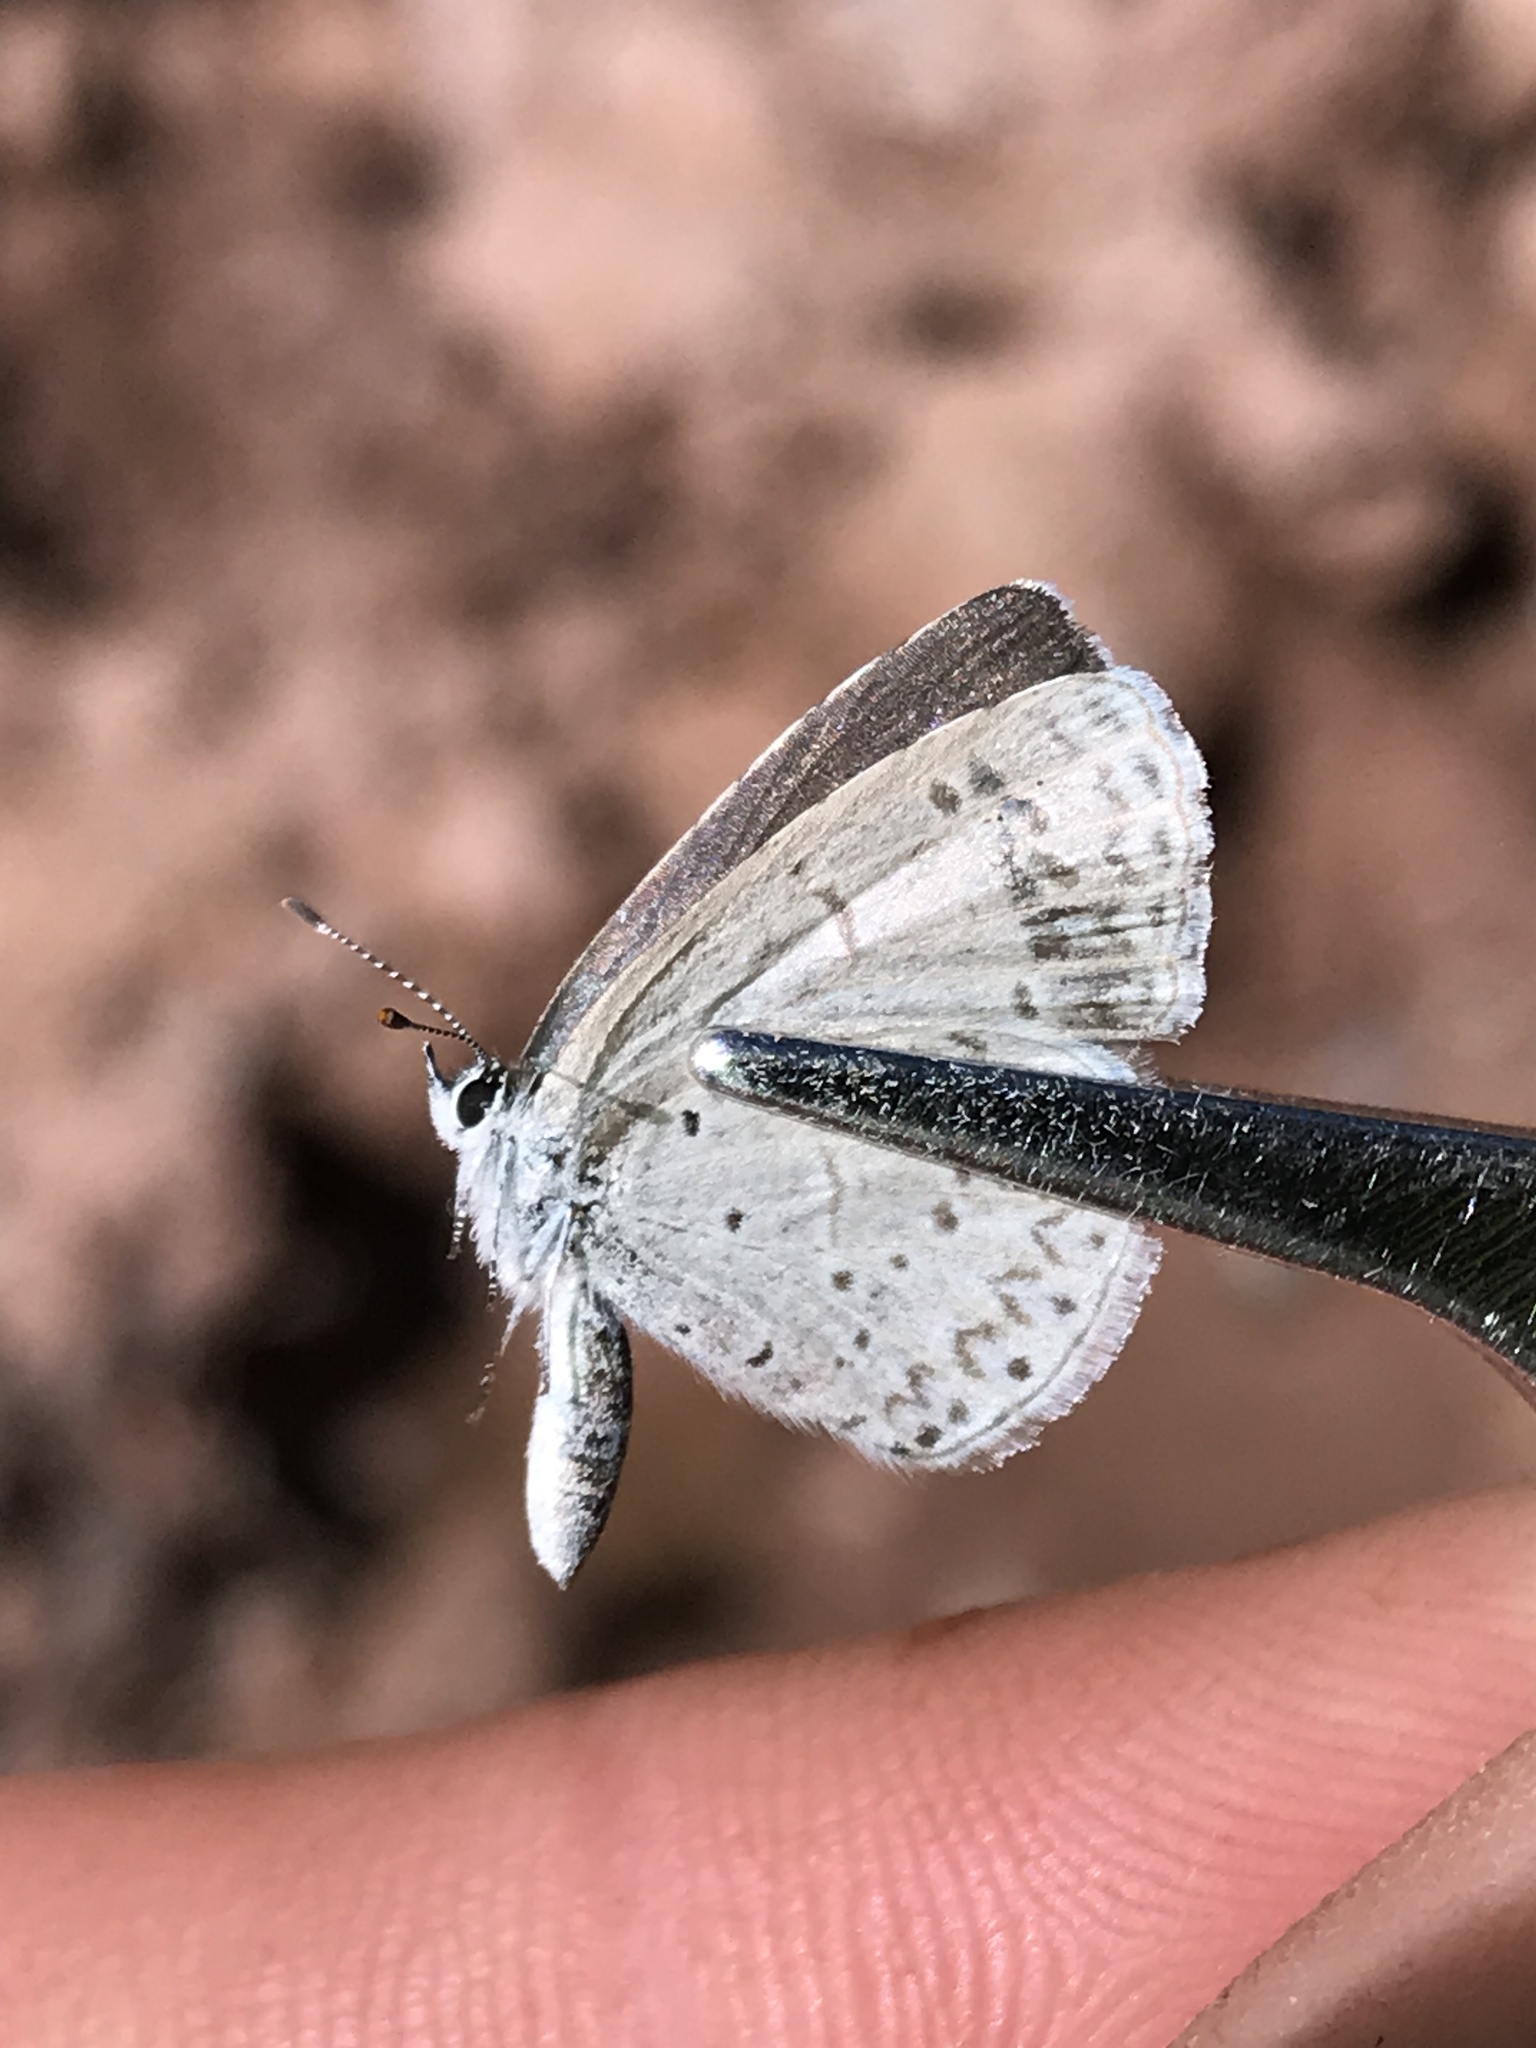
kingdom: Animalia
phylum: Arthropoda
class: Insecta
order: Lepidoptera
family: Lycaenidae
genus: Celastrina
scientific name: Celastrina argiolus
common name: Holly blue
